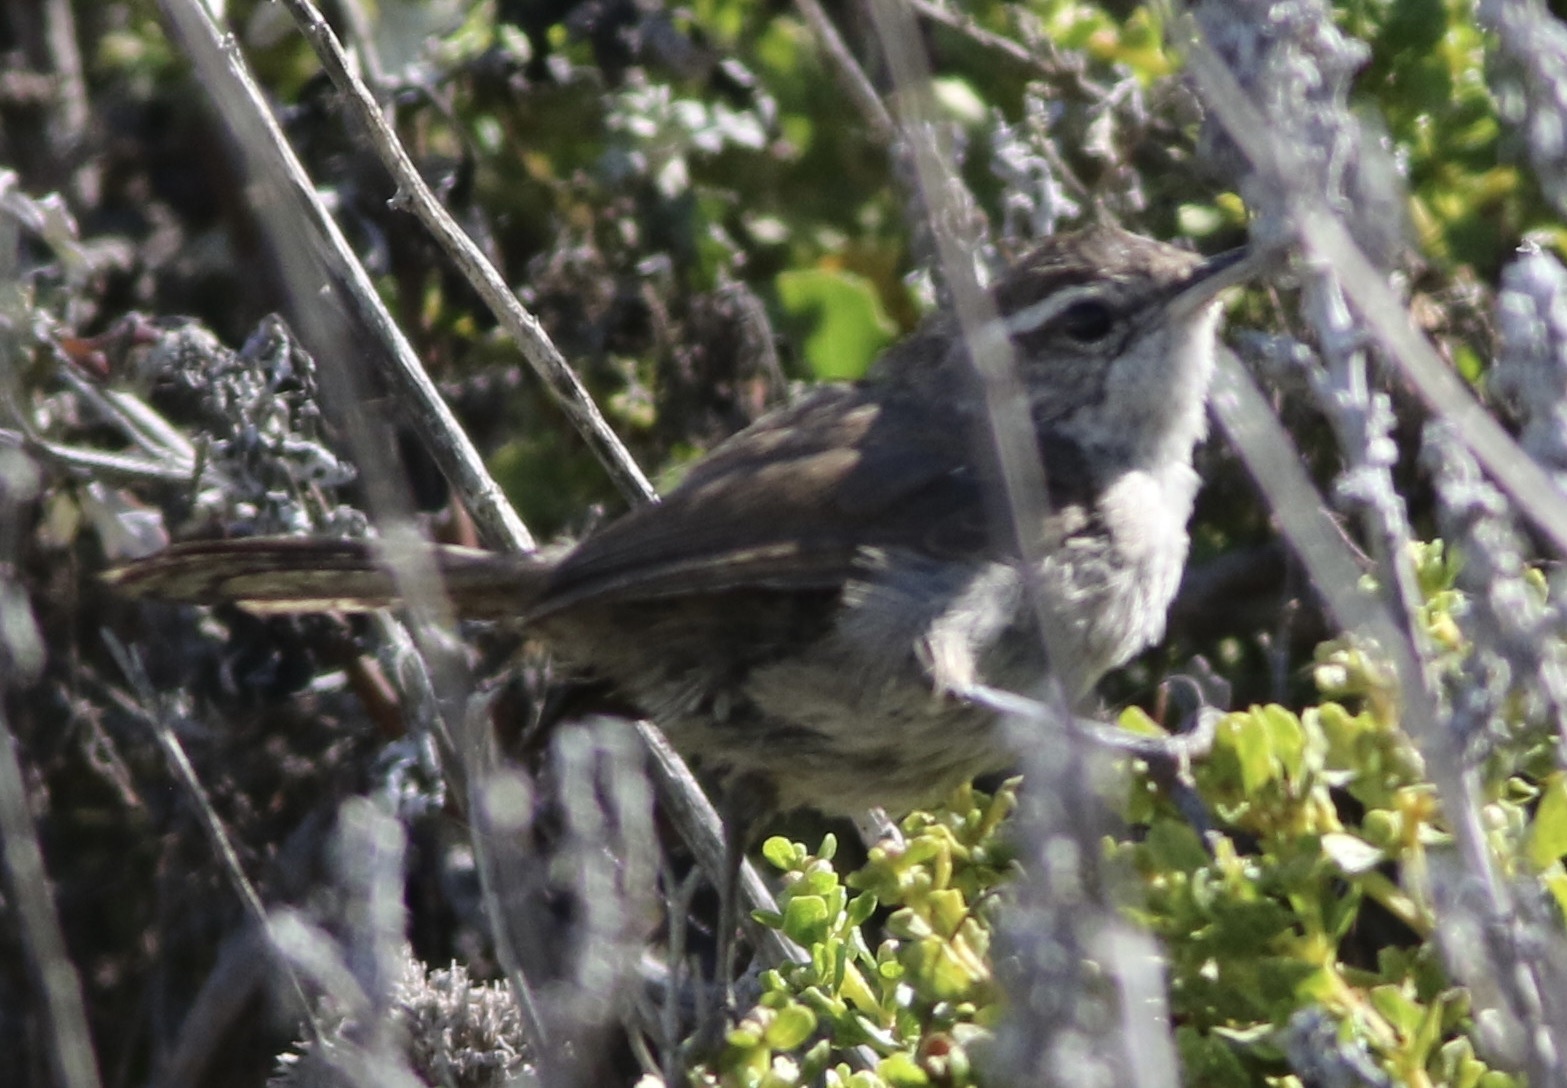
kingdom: Animalia
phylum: Chordata
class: Aves
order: Passeriformes
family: Troglodytidae
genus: Thryomanes
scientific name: Thryomanes bewickii
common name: Bewick's wren
